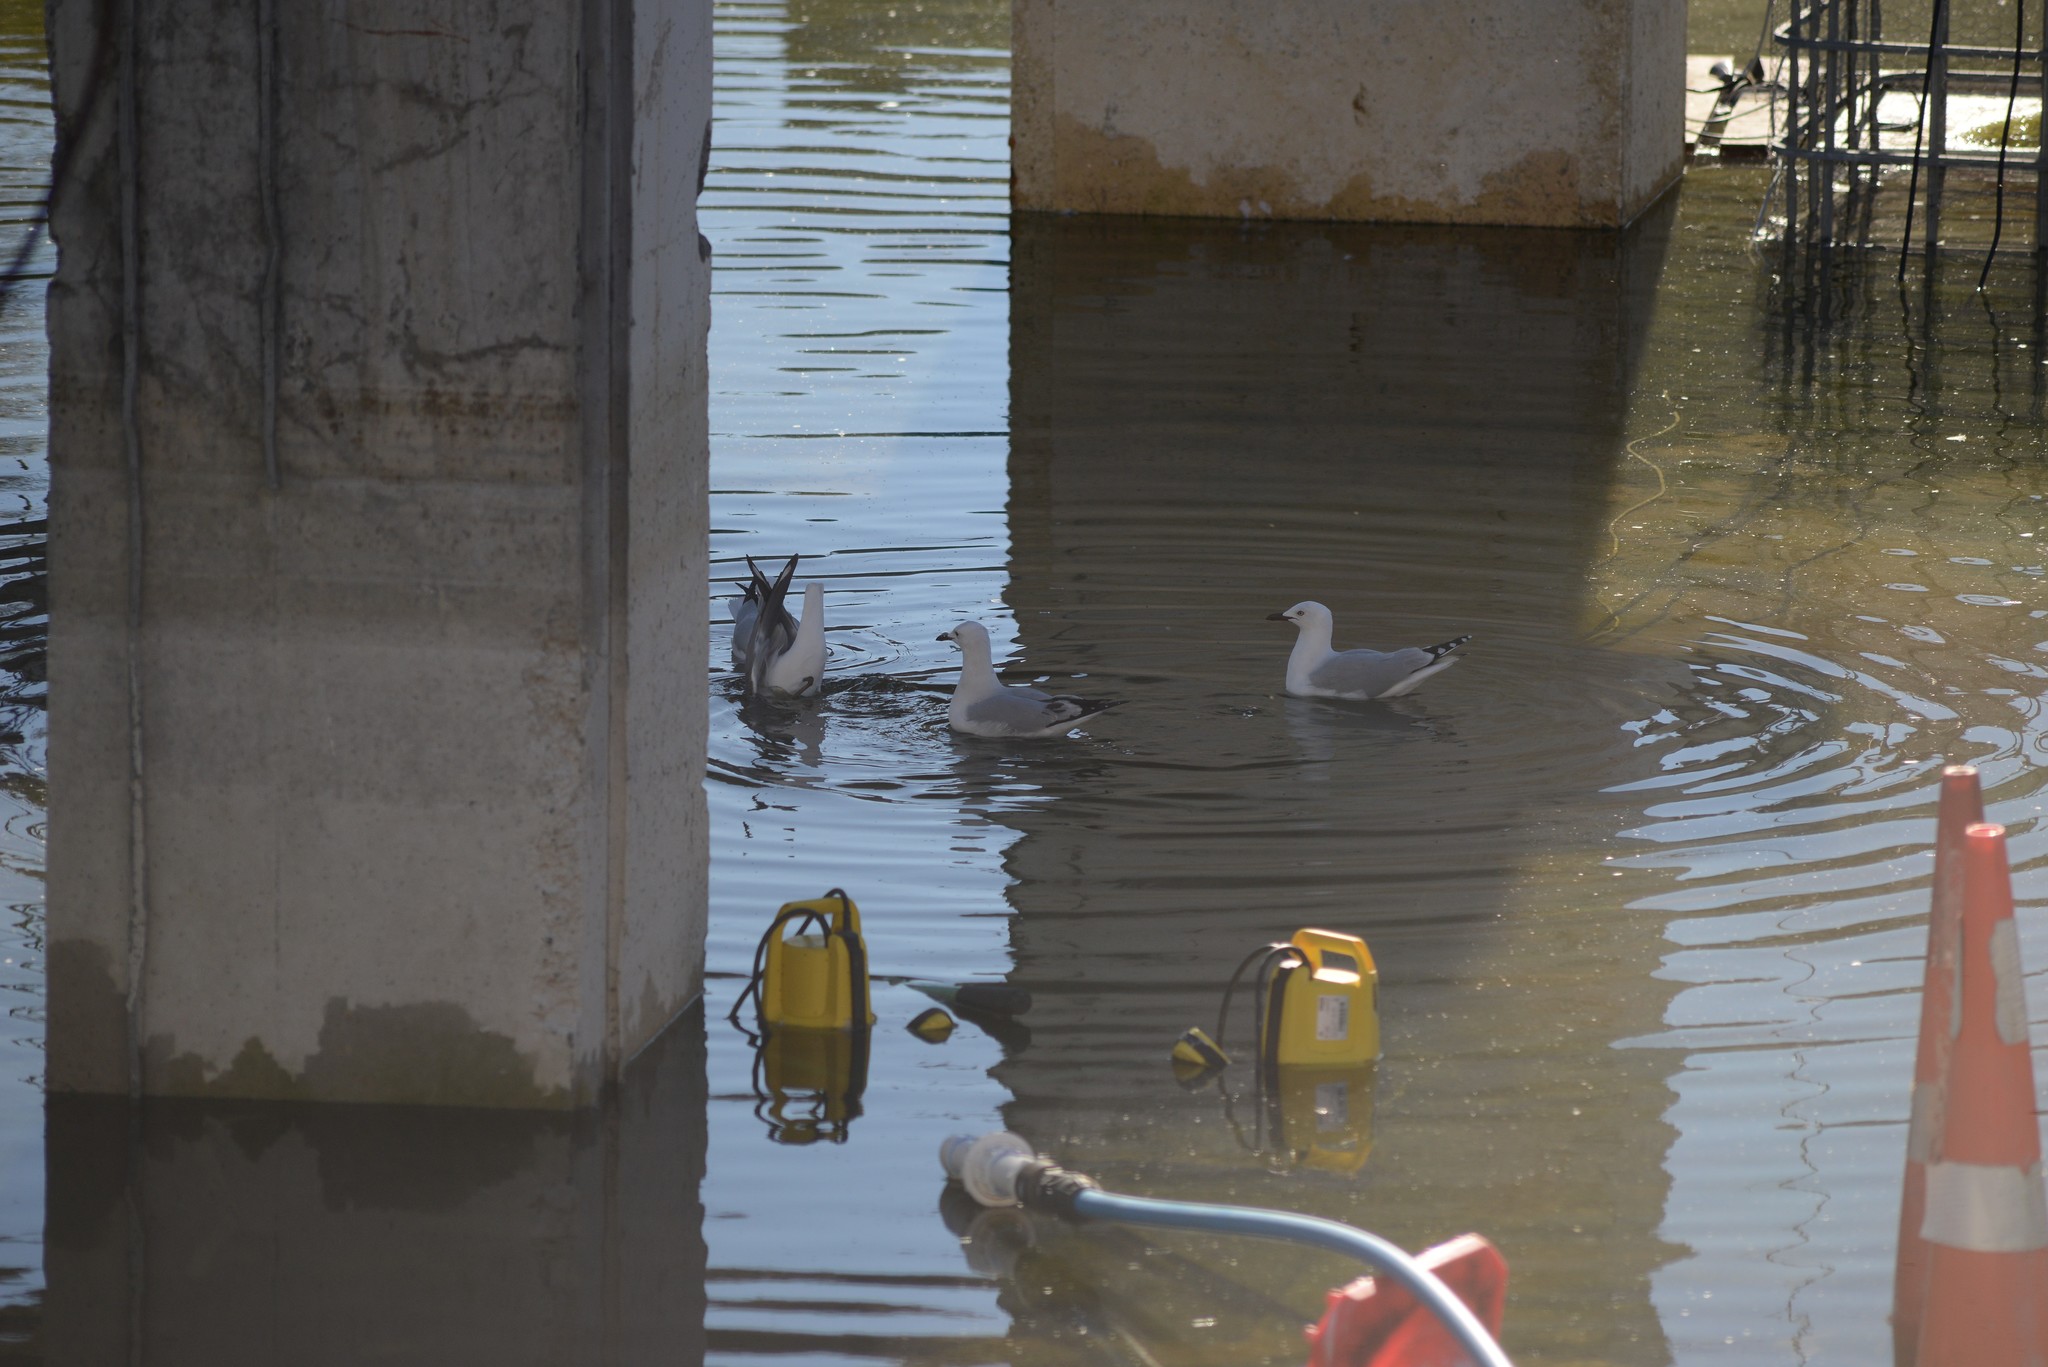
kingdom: Animalia
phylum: Chordata
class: Aves
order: Charadriiformes
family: Laridae
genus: Chroicocephalus
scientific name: Chroicocephalus novaehollandiae
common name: Silver gull
